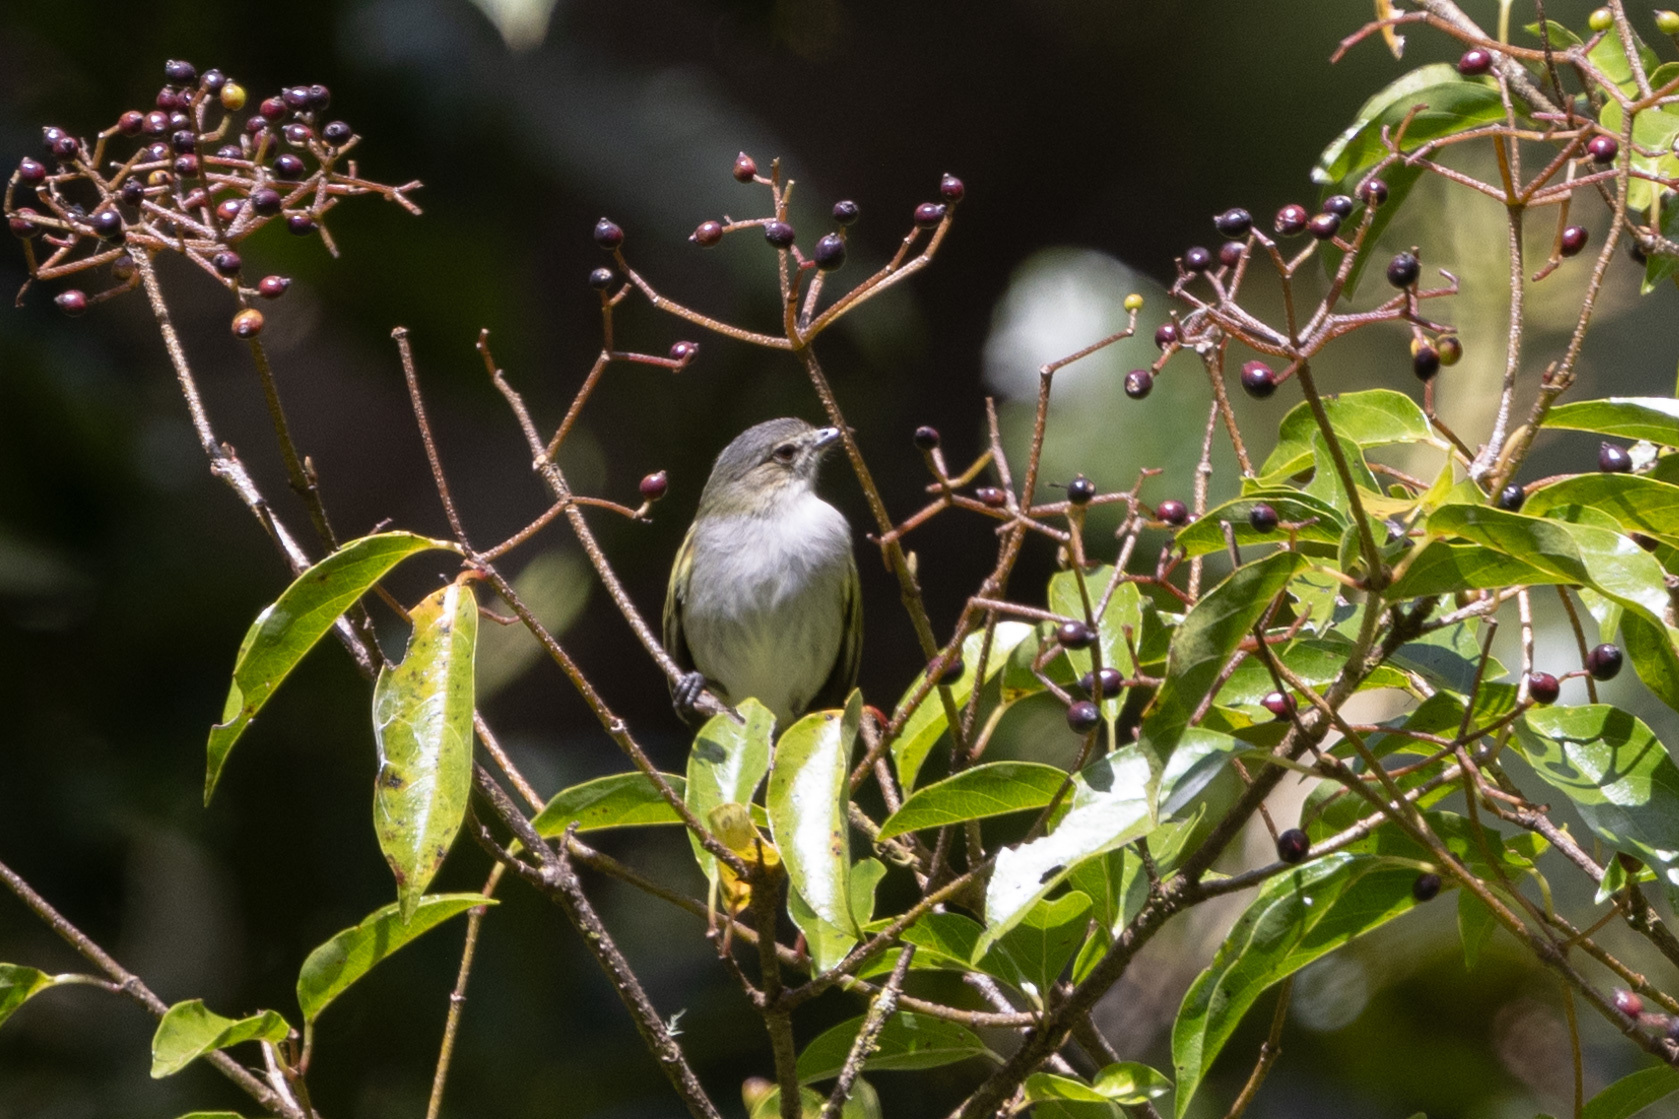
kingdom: Animalia
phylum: Chordata
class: Aves
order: Passeriformes
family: Tyrannidae
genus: Zimmerius
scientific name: Zimmerius vilissimus
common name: Paltry tyrannulet
